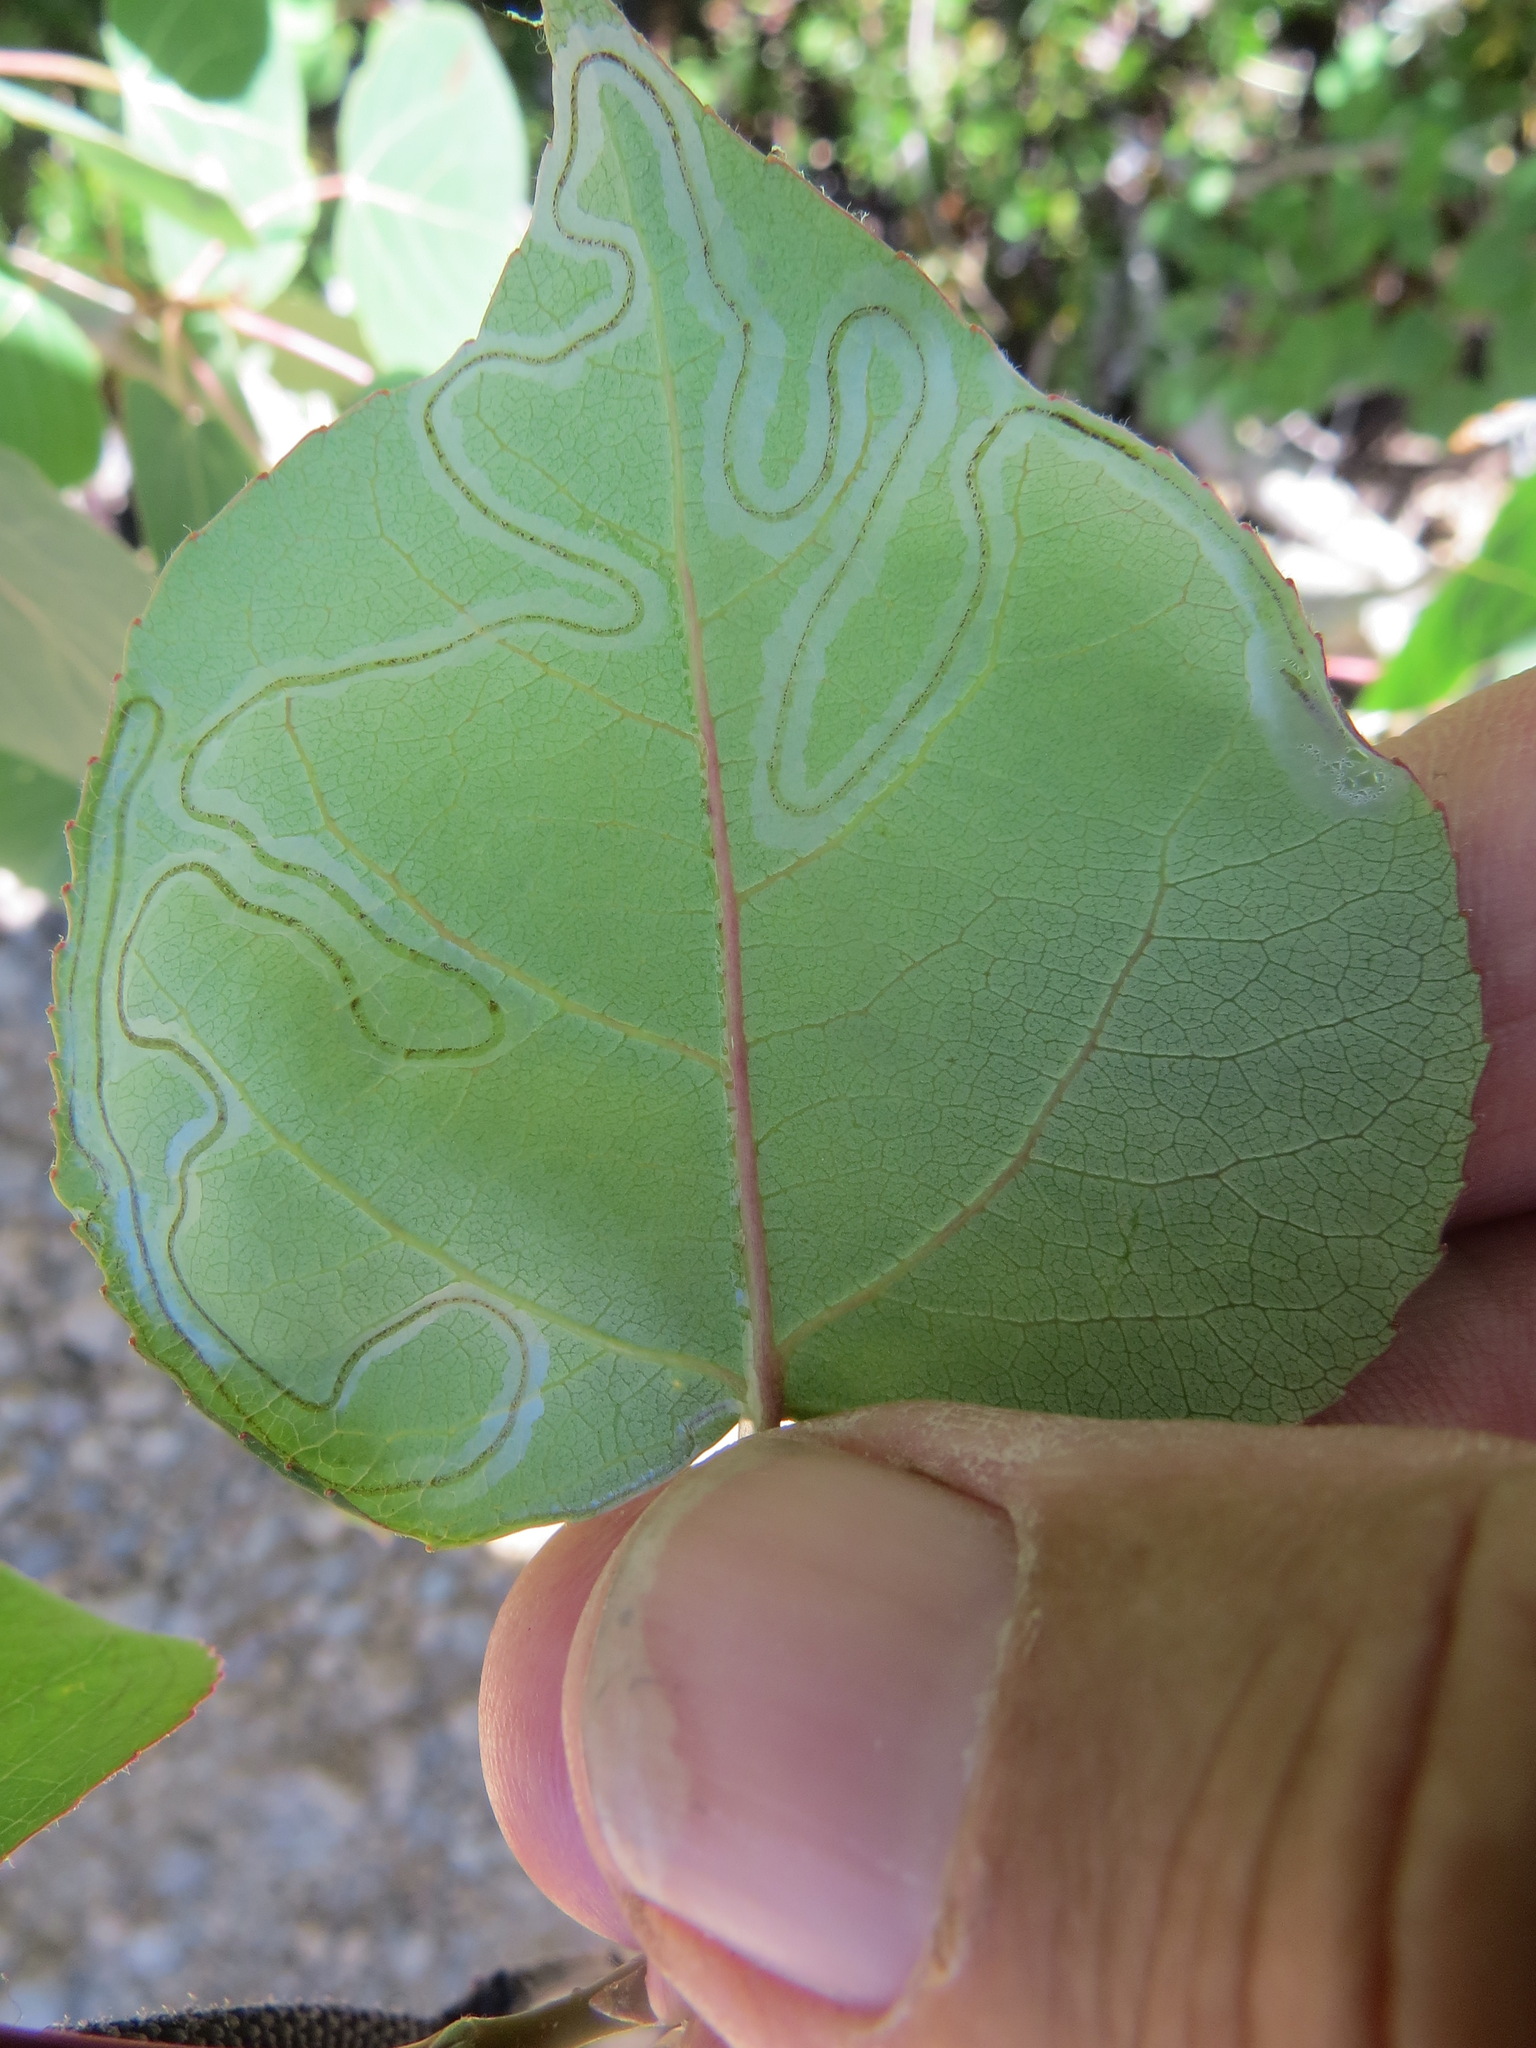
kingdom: Animalia
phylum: Arthropoda
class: Insecta
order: Lepidoptera
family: Gracillariidae
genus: Phyllocnistis
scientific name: Phyllocnistis populiella
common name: Aspen serpentine leafminer moth
